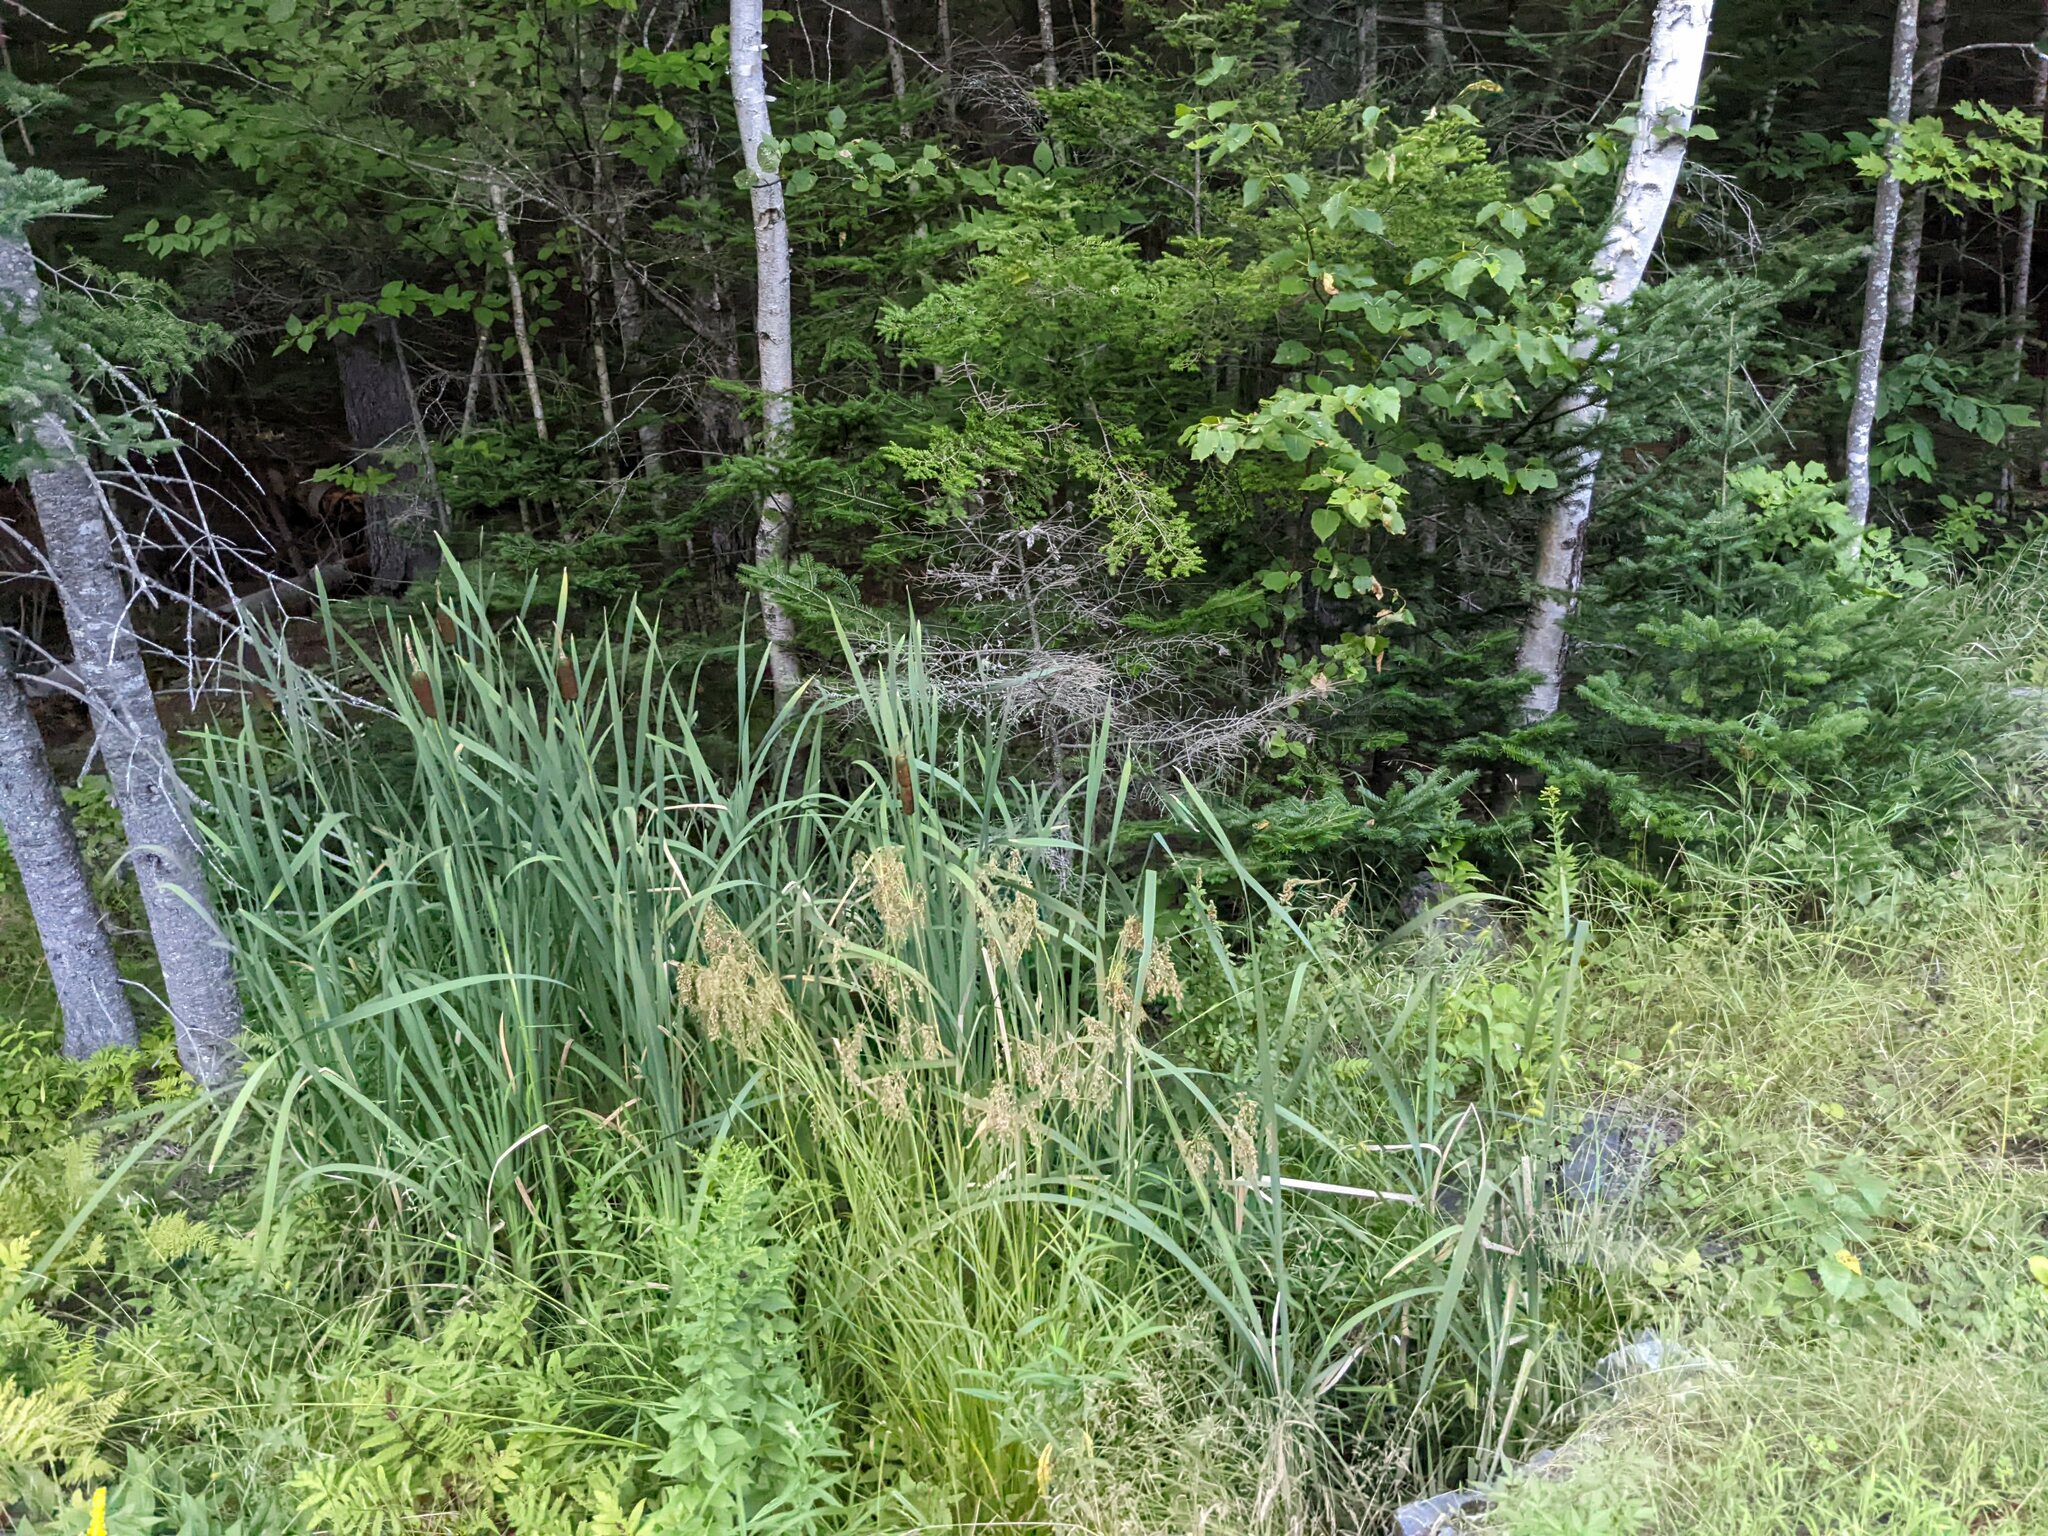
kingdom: Plantae
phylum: Tracheophyta
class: Liliopsida
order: Poales
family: Typhaceae
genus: Typha
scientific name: Typha latifolia
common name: Broadleaf cattail
